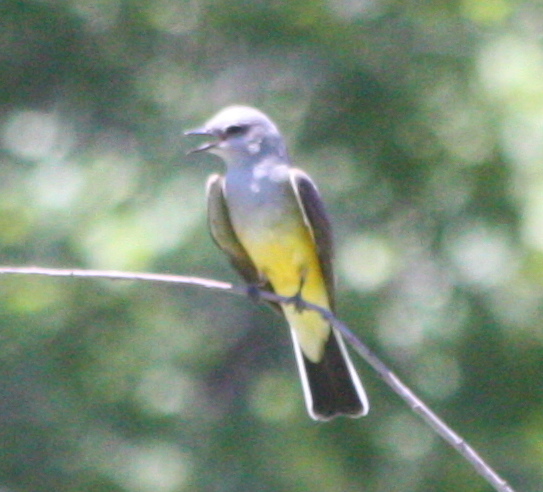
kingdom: Animalia
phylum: Chordata
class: Aves
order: Passeriformes
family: Tyrannidae
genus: Tyrannus
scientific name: Tyrannus verticalis
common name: Western kingbird
